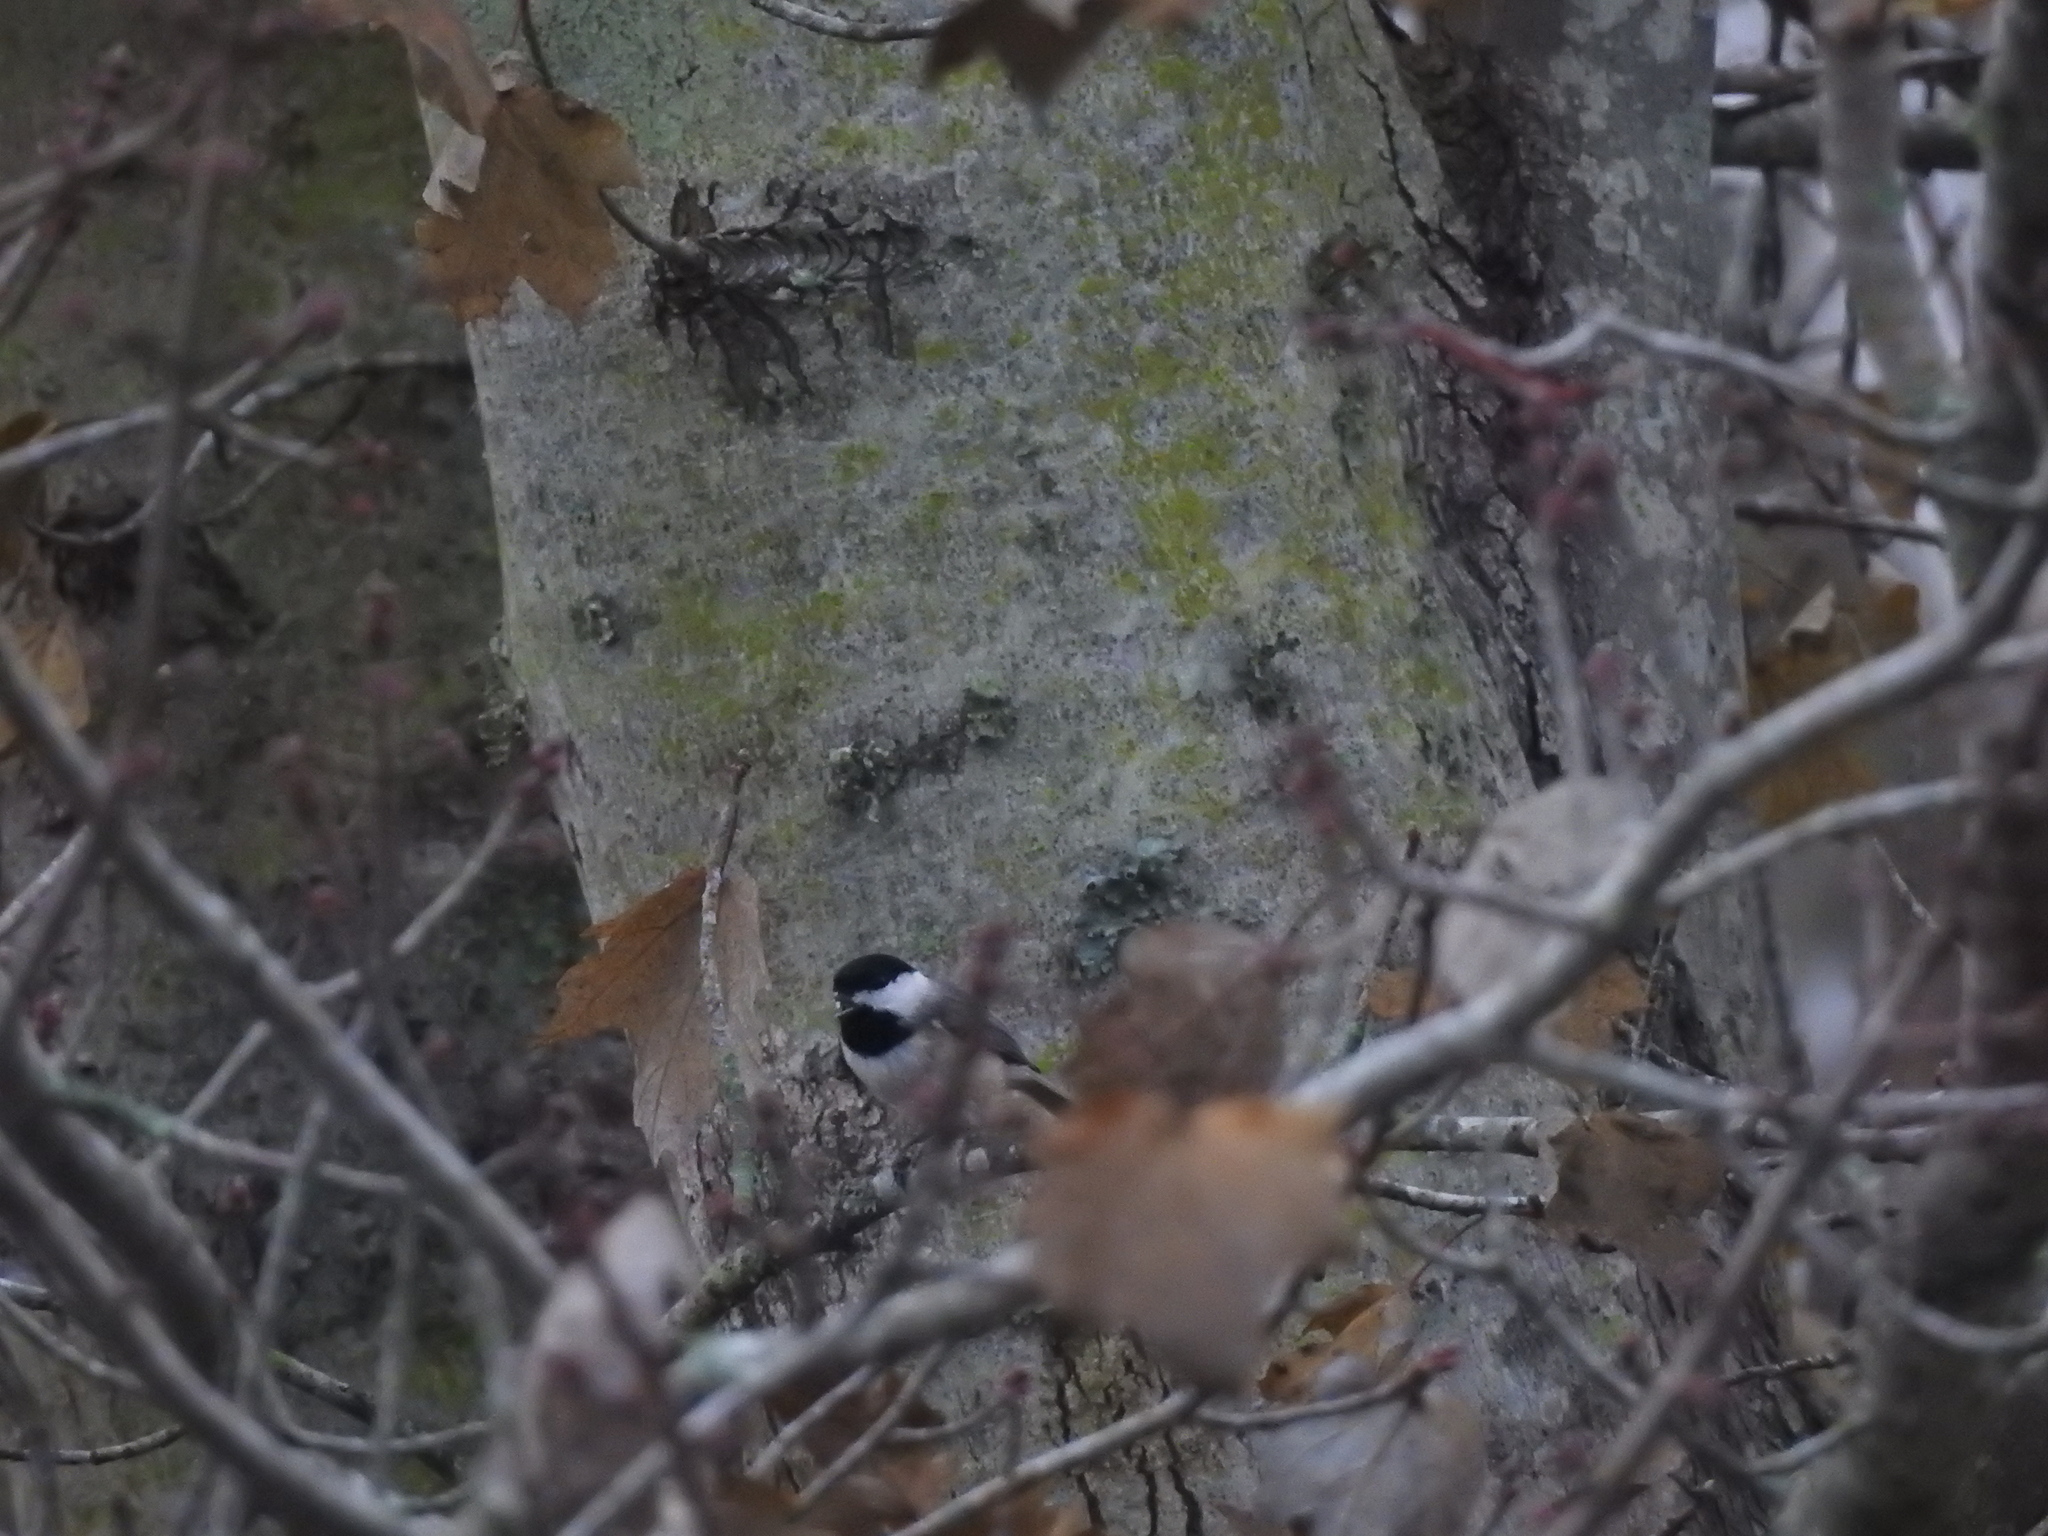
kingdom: Animalia
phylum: Chordata
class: Aves
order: Passeriformes
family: Paridae
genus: Poecile
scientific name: Poecile carolinensis
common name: Carolina chickadee
